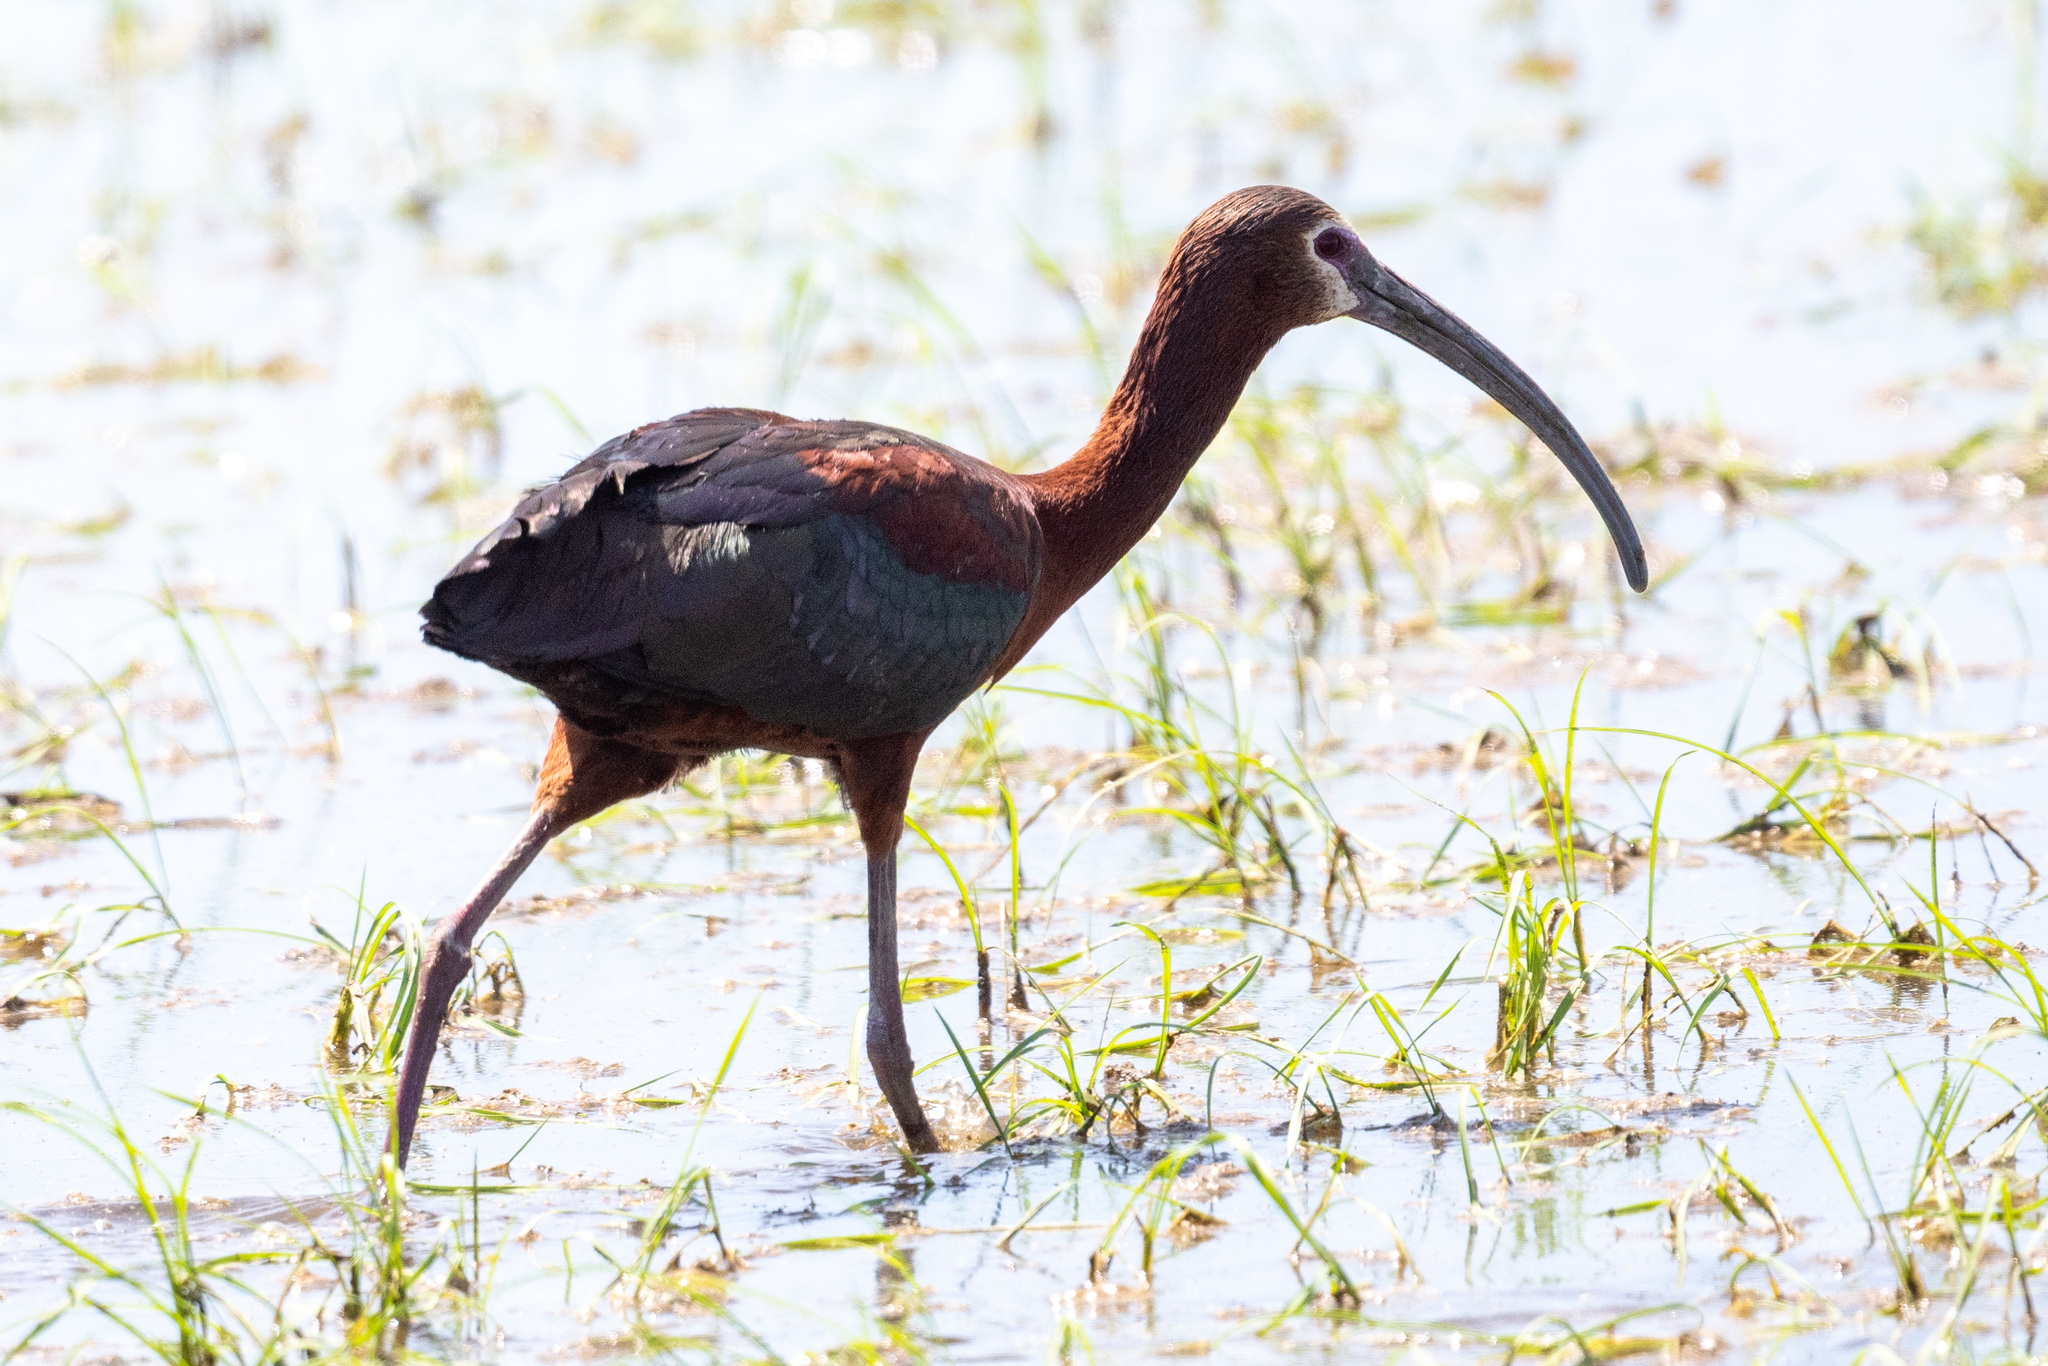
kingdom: Animalia
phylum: Chordata
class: Aves
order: Pelecaniformes
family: Threskiornithidae
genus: Plegadis
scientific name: Plegadis chihi
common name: White-faced ibis
